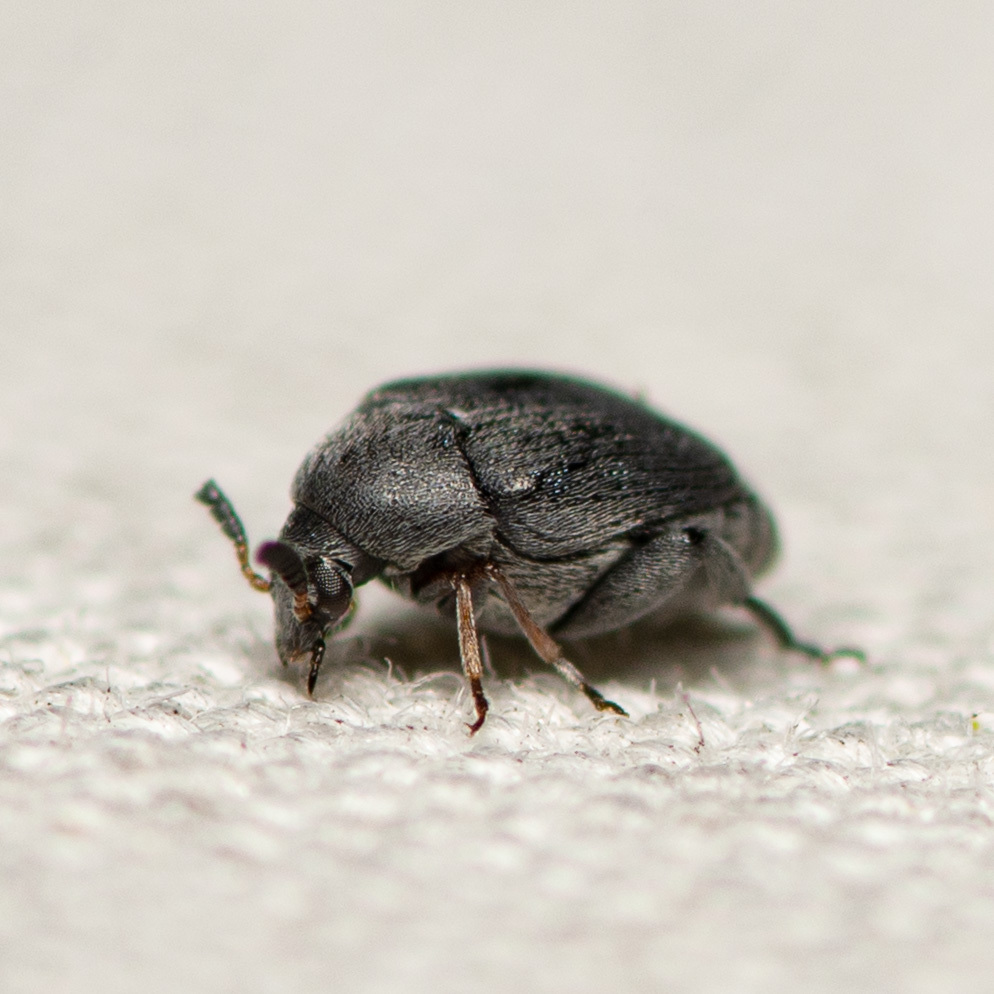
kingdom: Animalia
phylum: Arthropoda
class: Insecta
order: Coleoptera
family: Chrysomelidae
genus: Stator
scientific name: Stator pruininus
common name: Leaf beetle
